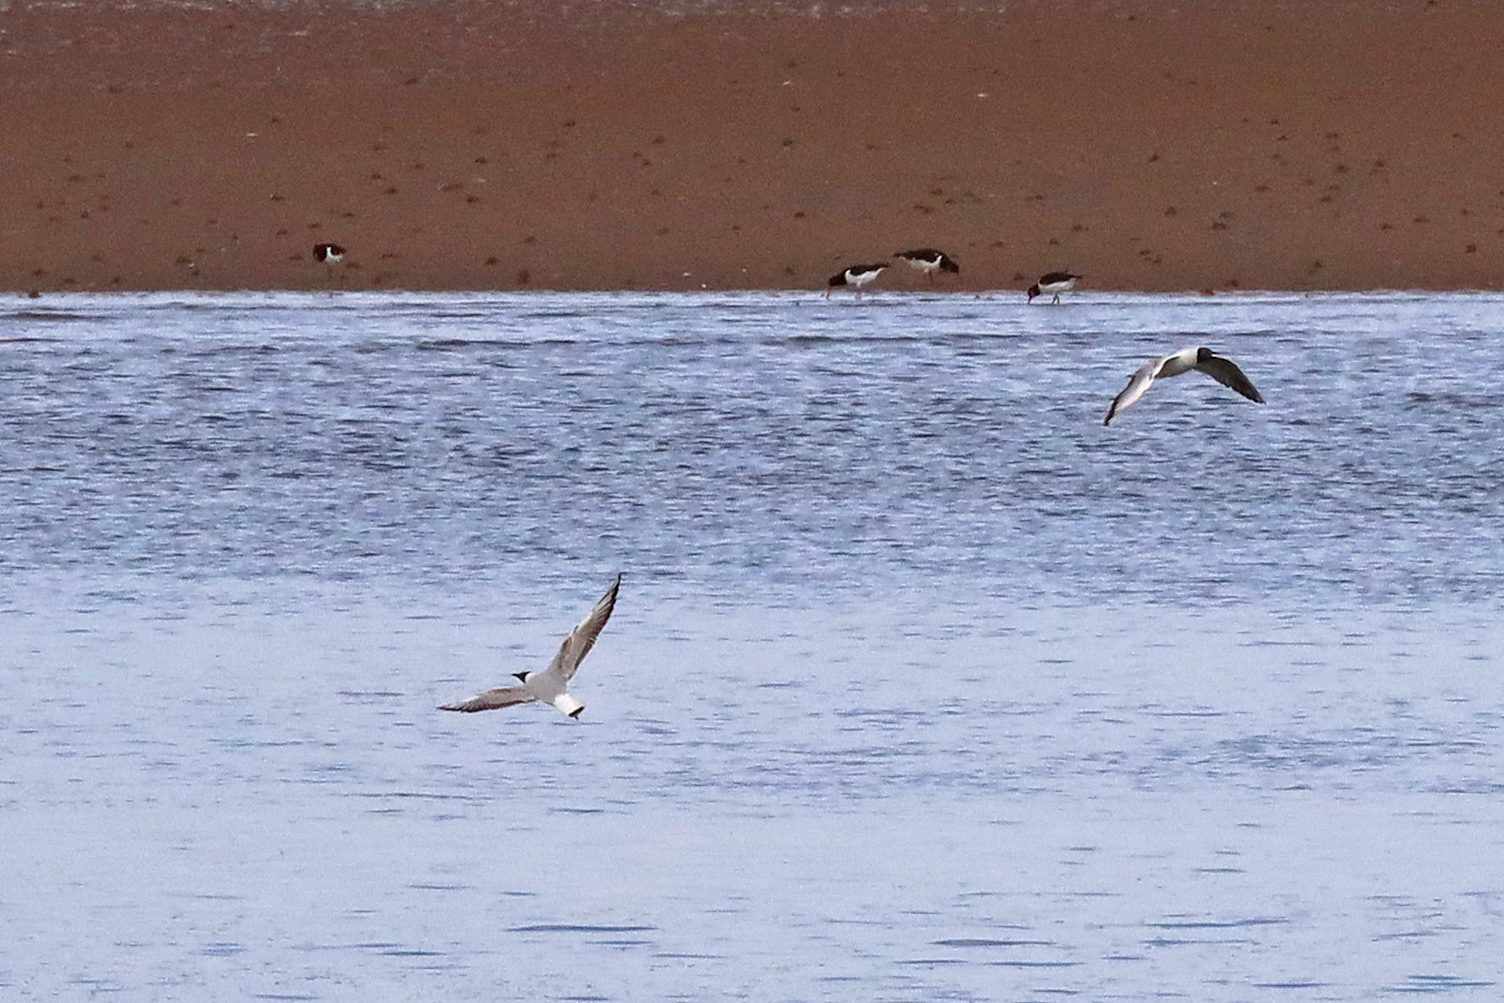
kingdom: Animalia
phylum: Chordata
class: Aves
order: Charadriiformes
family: Laridae
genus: Chroicocephalus
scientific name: Chroicocephalus ridibundus
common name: Black-headed gull
